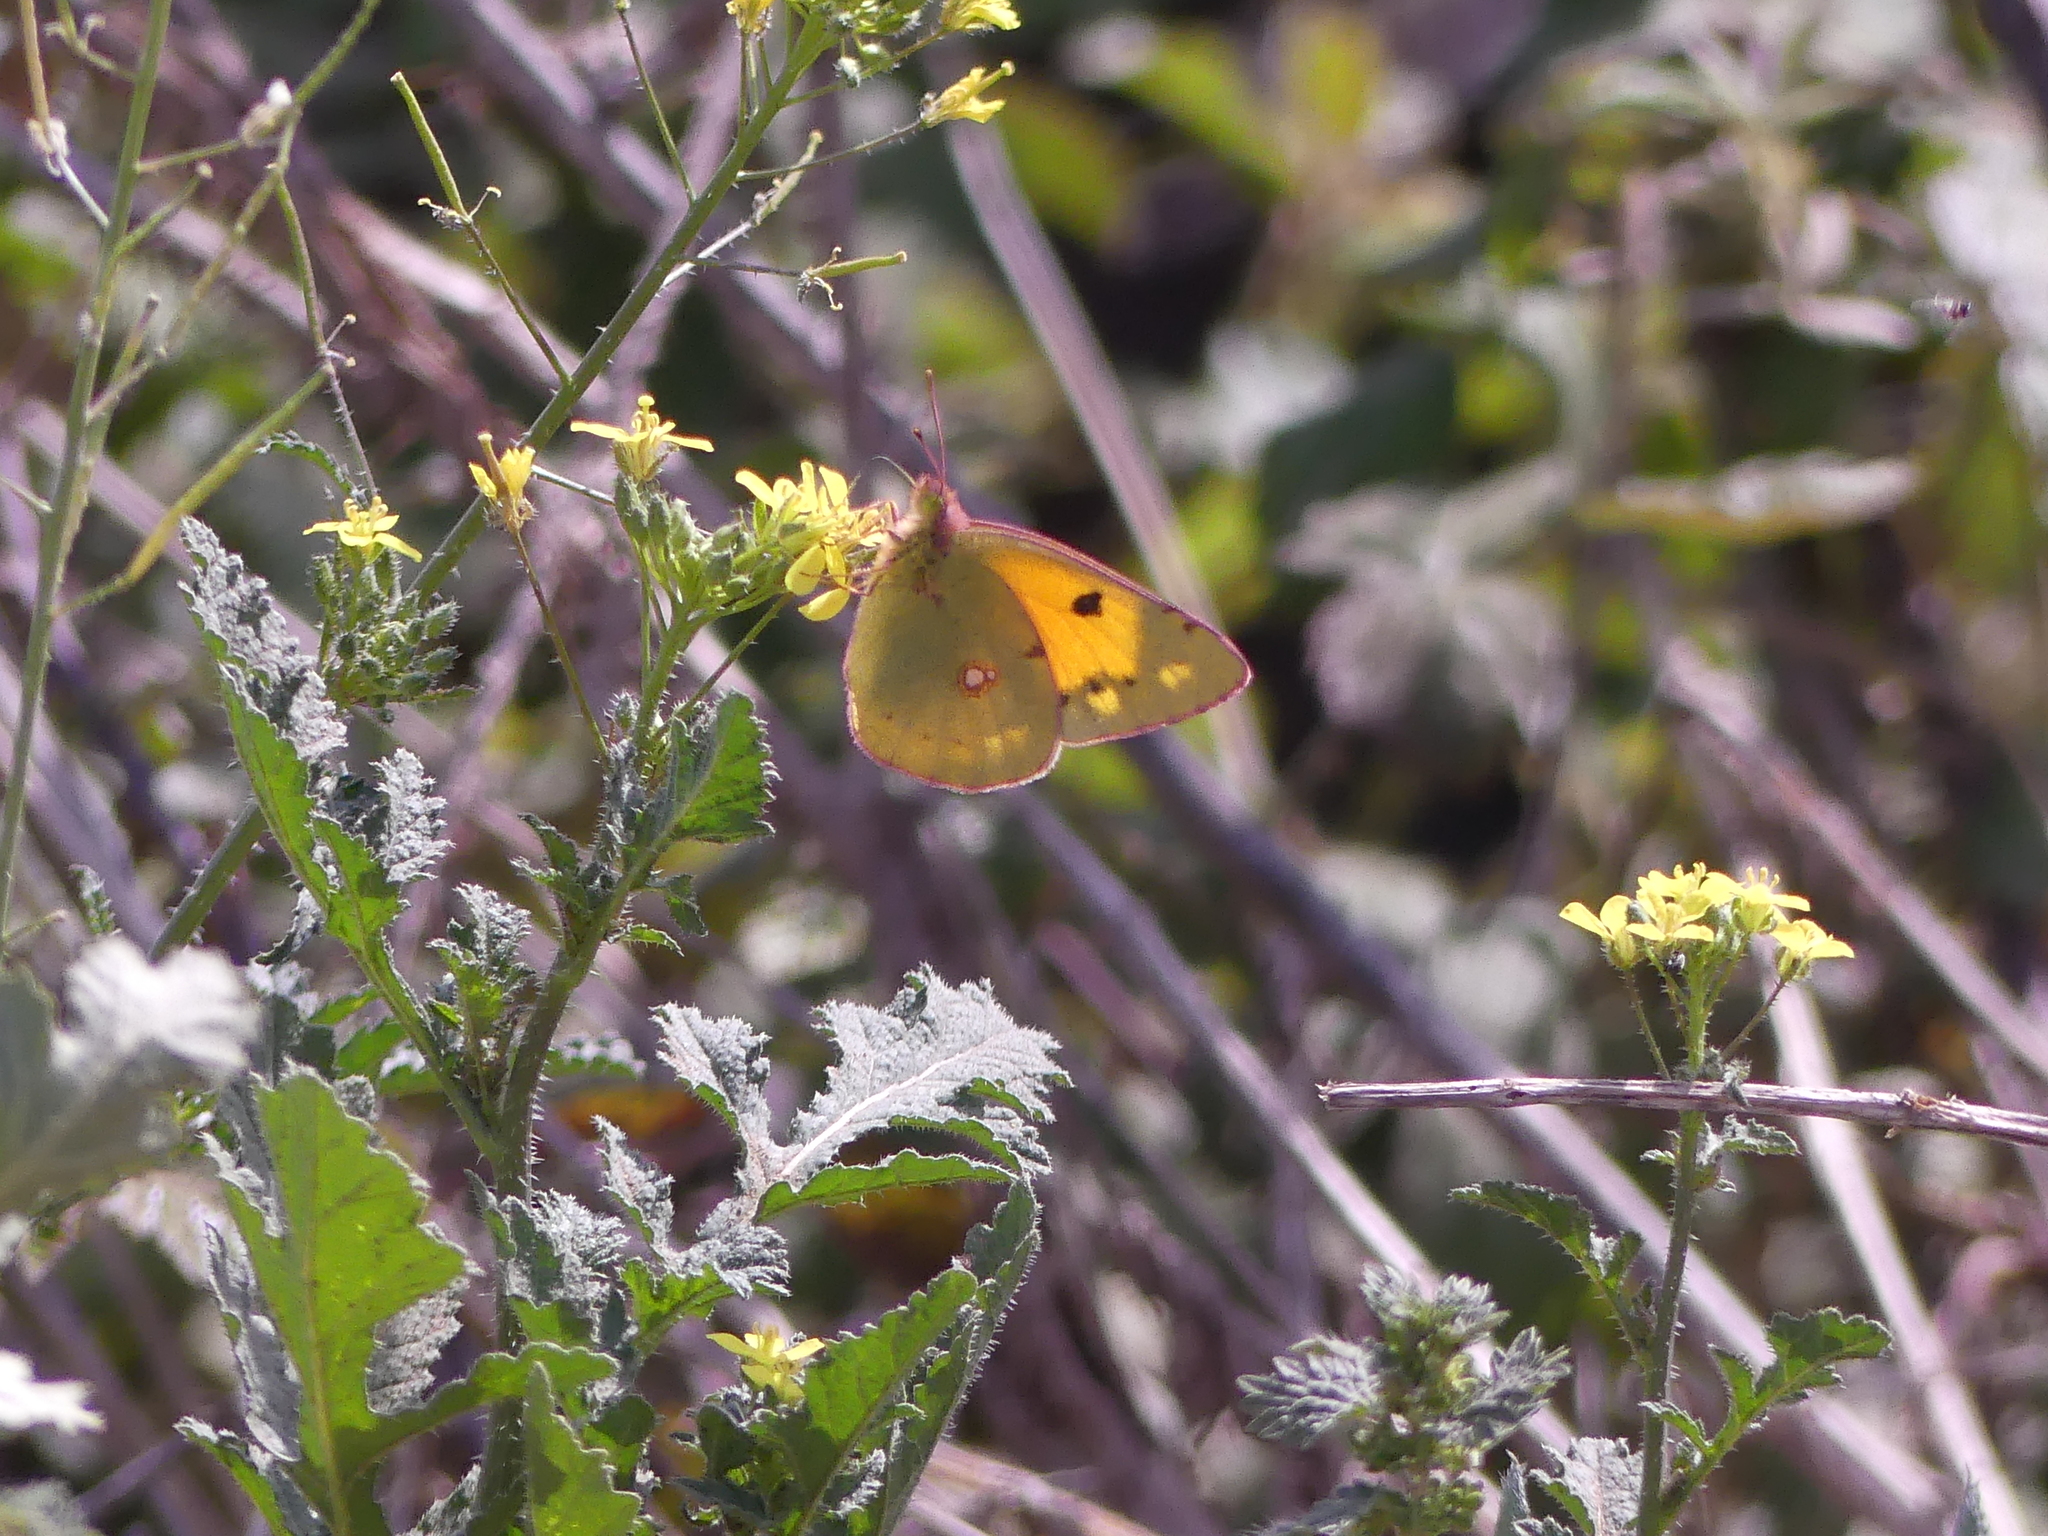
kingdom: Animalia
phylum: Arthropoda
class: Insecta
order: Lepidoptera
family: Pieridae
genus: Colias
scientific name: Colias croceus
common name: Clouded yellow
